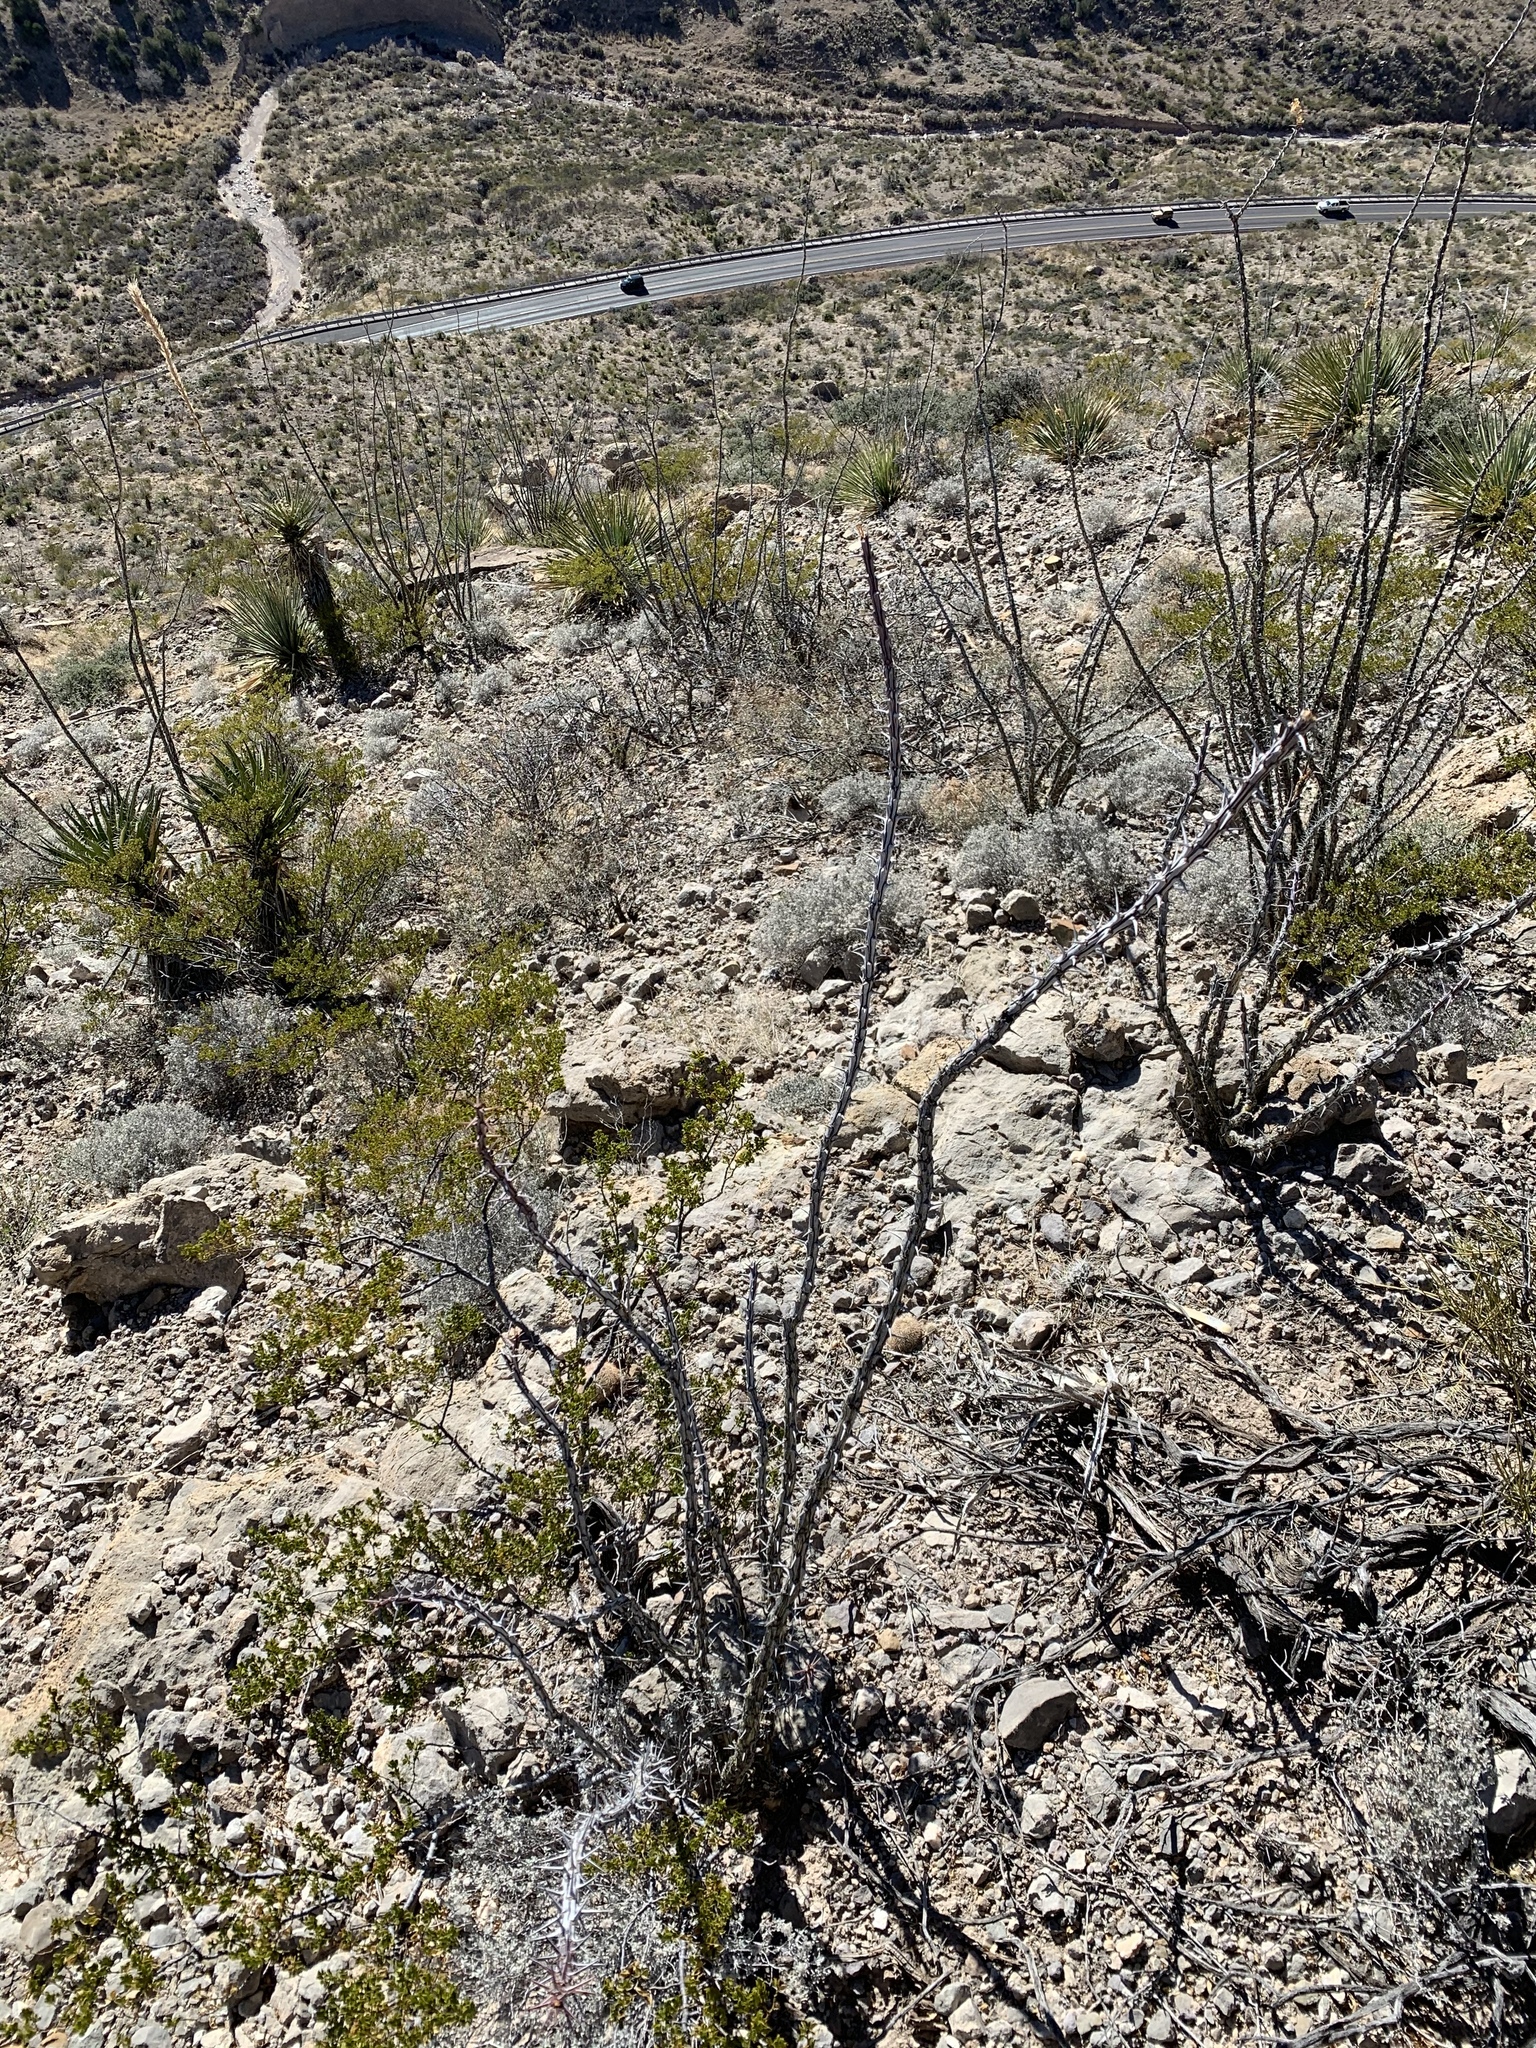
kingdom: Plantae
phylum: Tracheophyta
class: Magnoliopsida
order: Ericales
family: Fouquieriaceae
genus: Fouquieria
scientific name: Fouquieria splendens
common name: Vine-cactus
